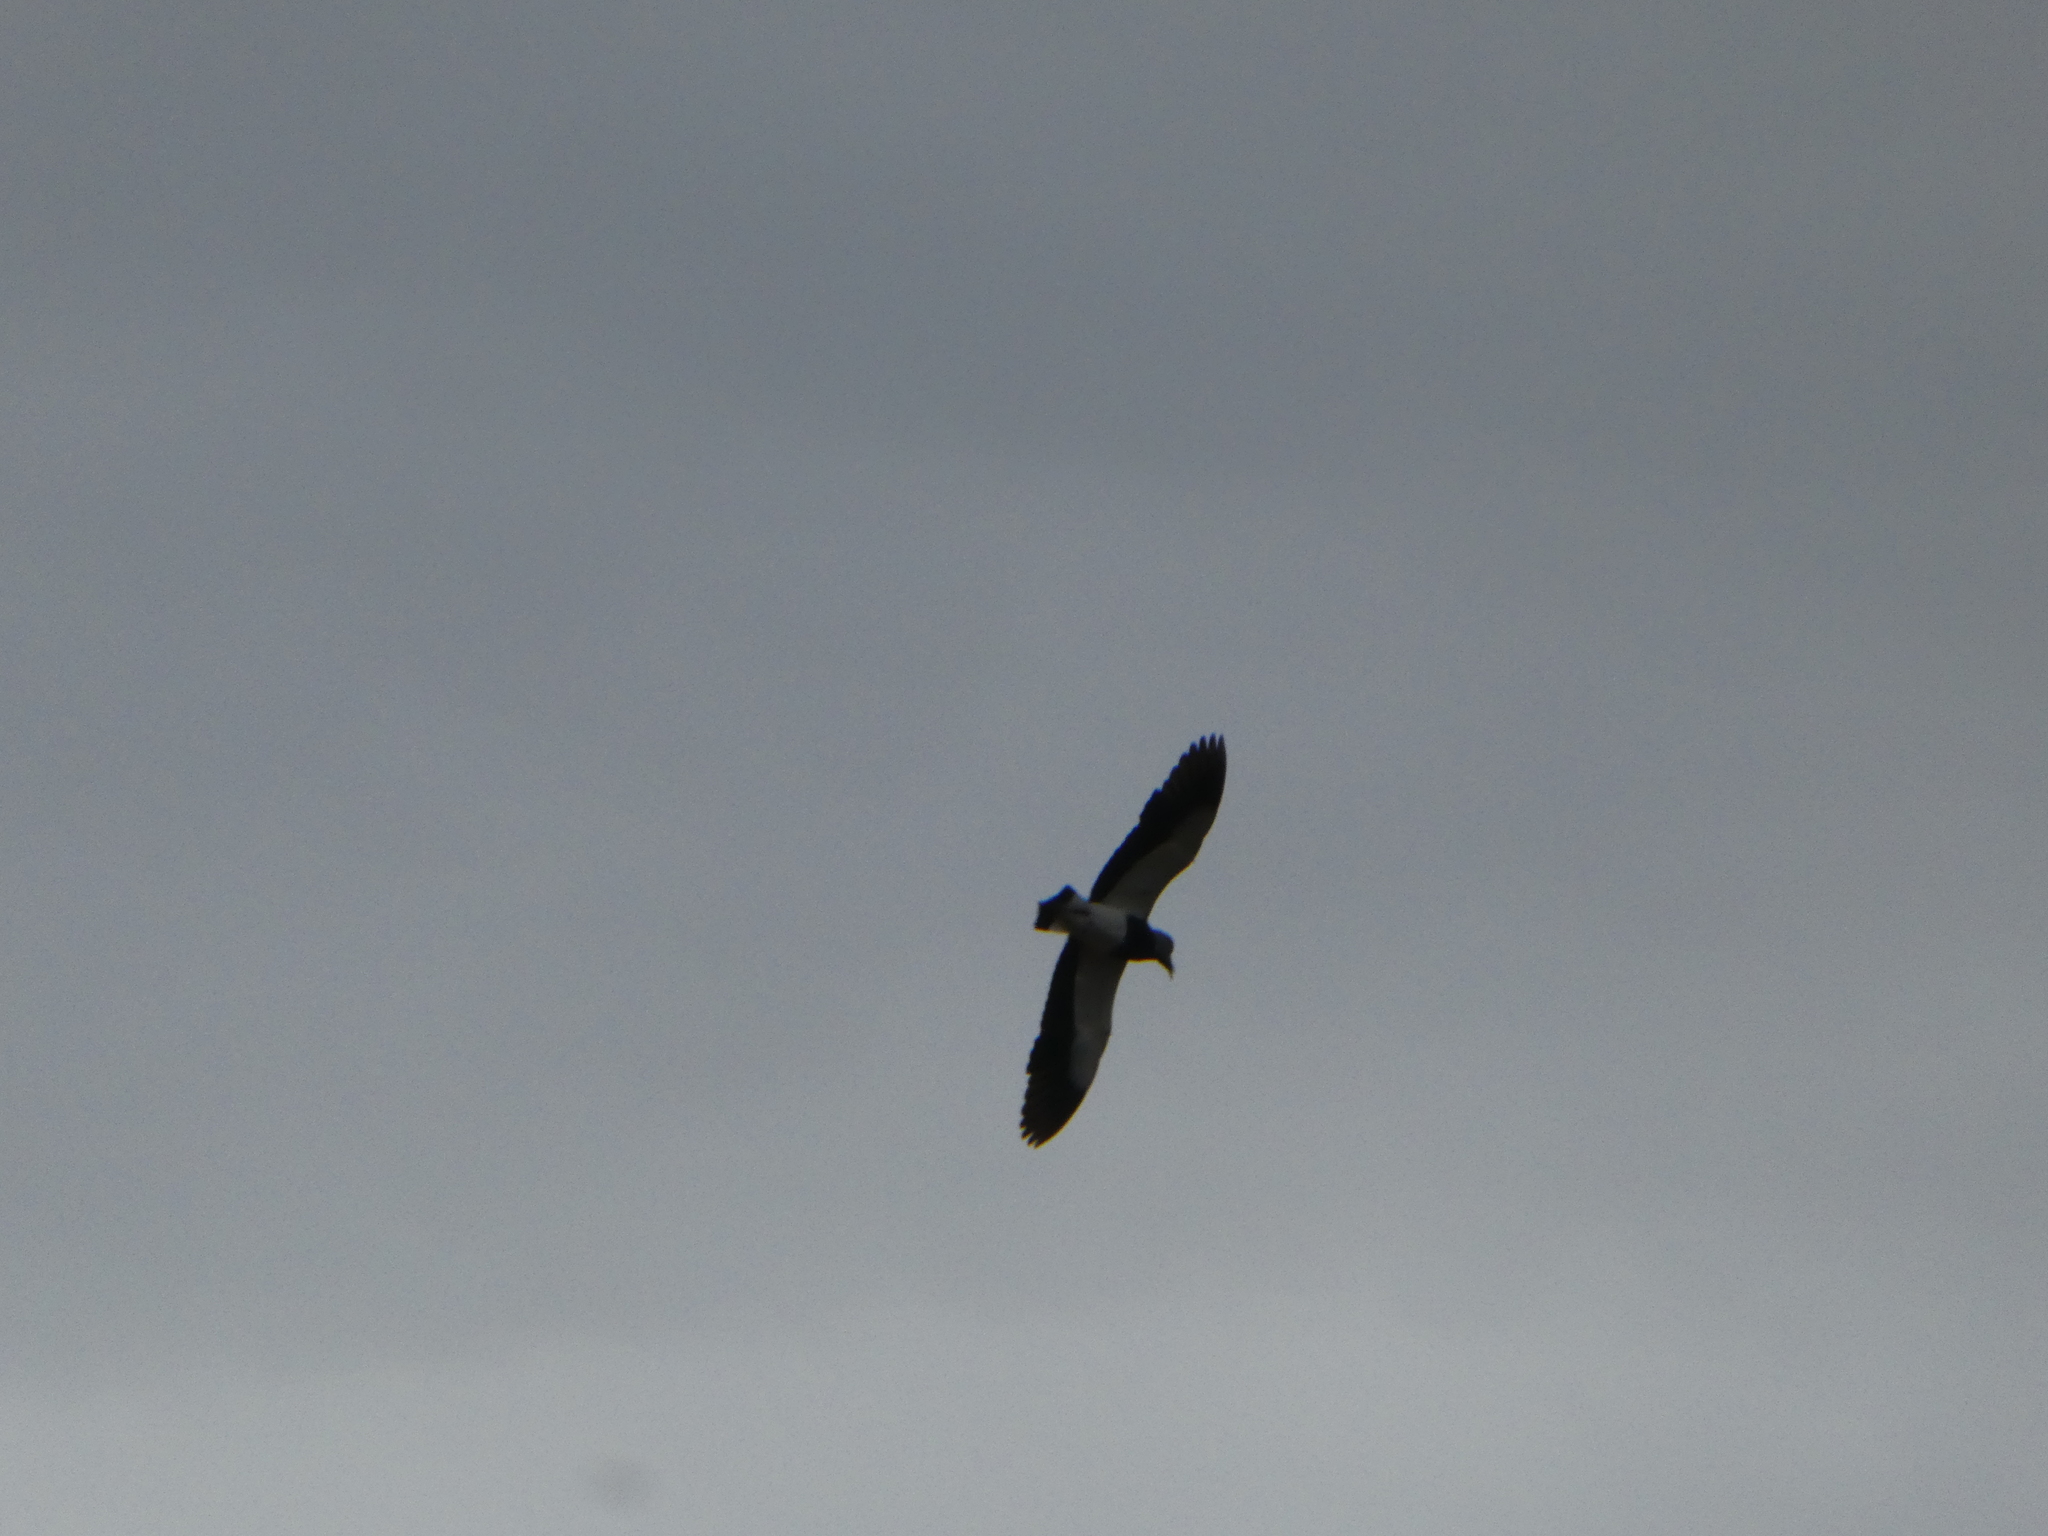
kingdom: Animalia
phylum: Chordata
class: Aves
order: Charadriiformes
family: Charadriidae
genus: Vanellus
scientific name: Vanellus chilensis
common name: Southern lapwing
